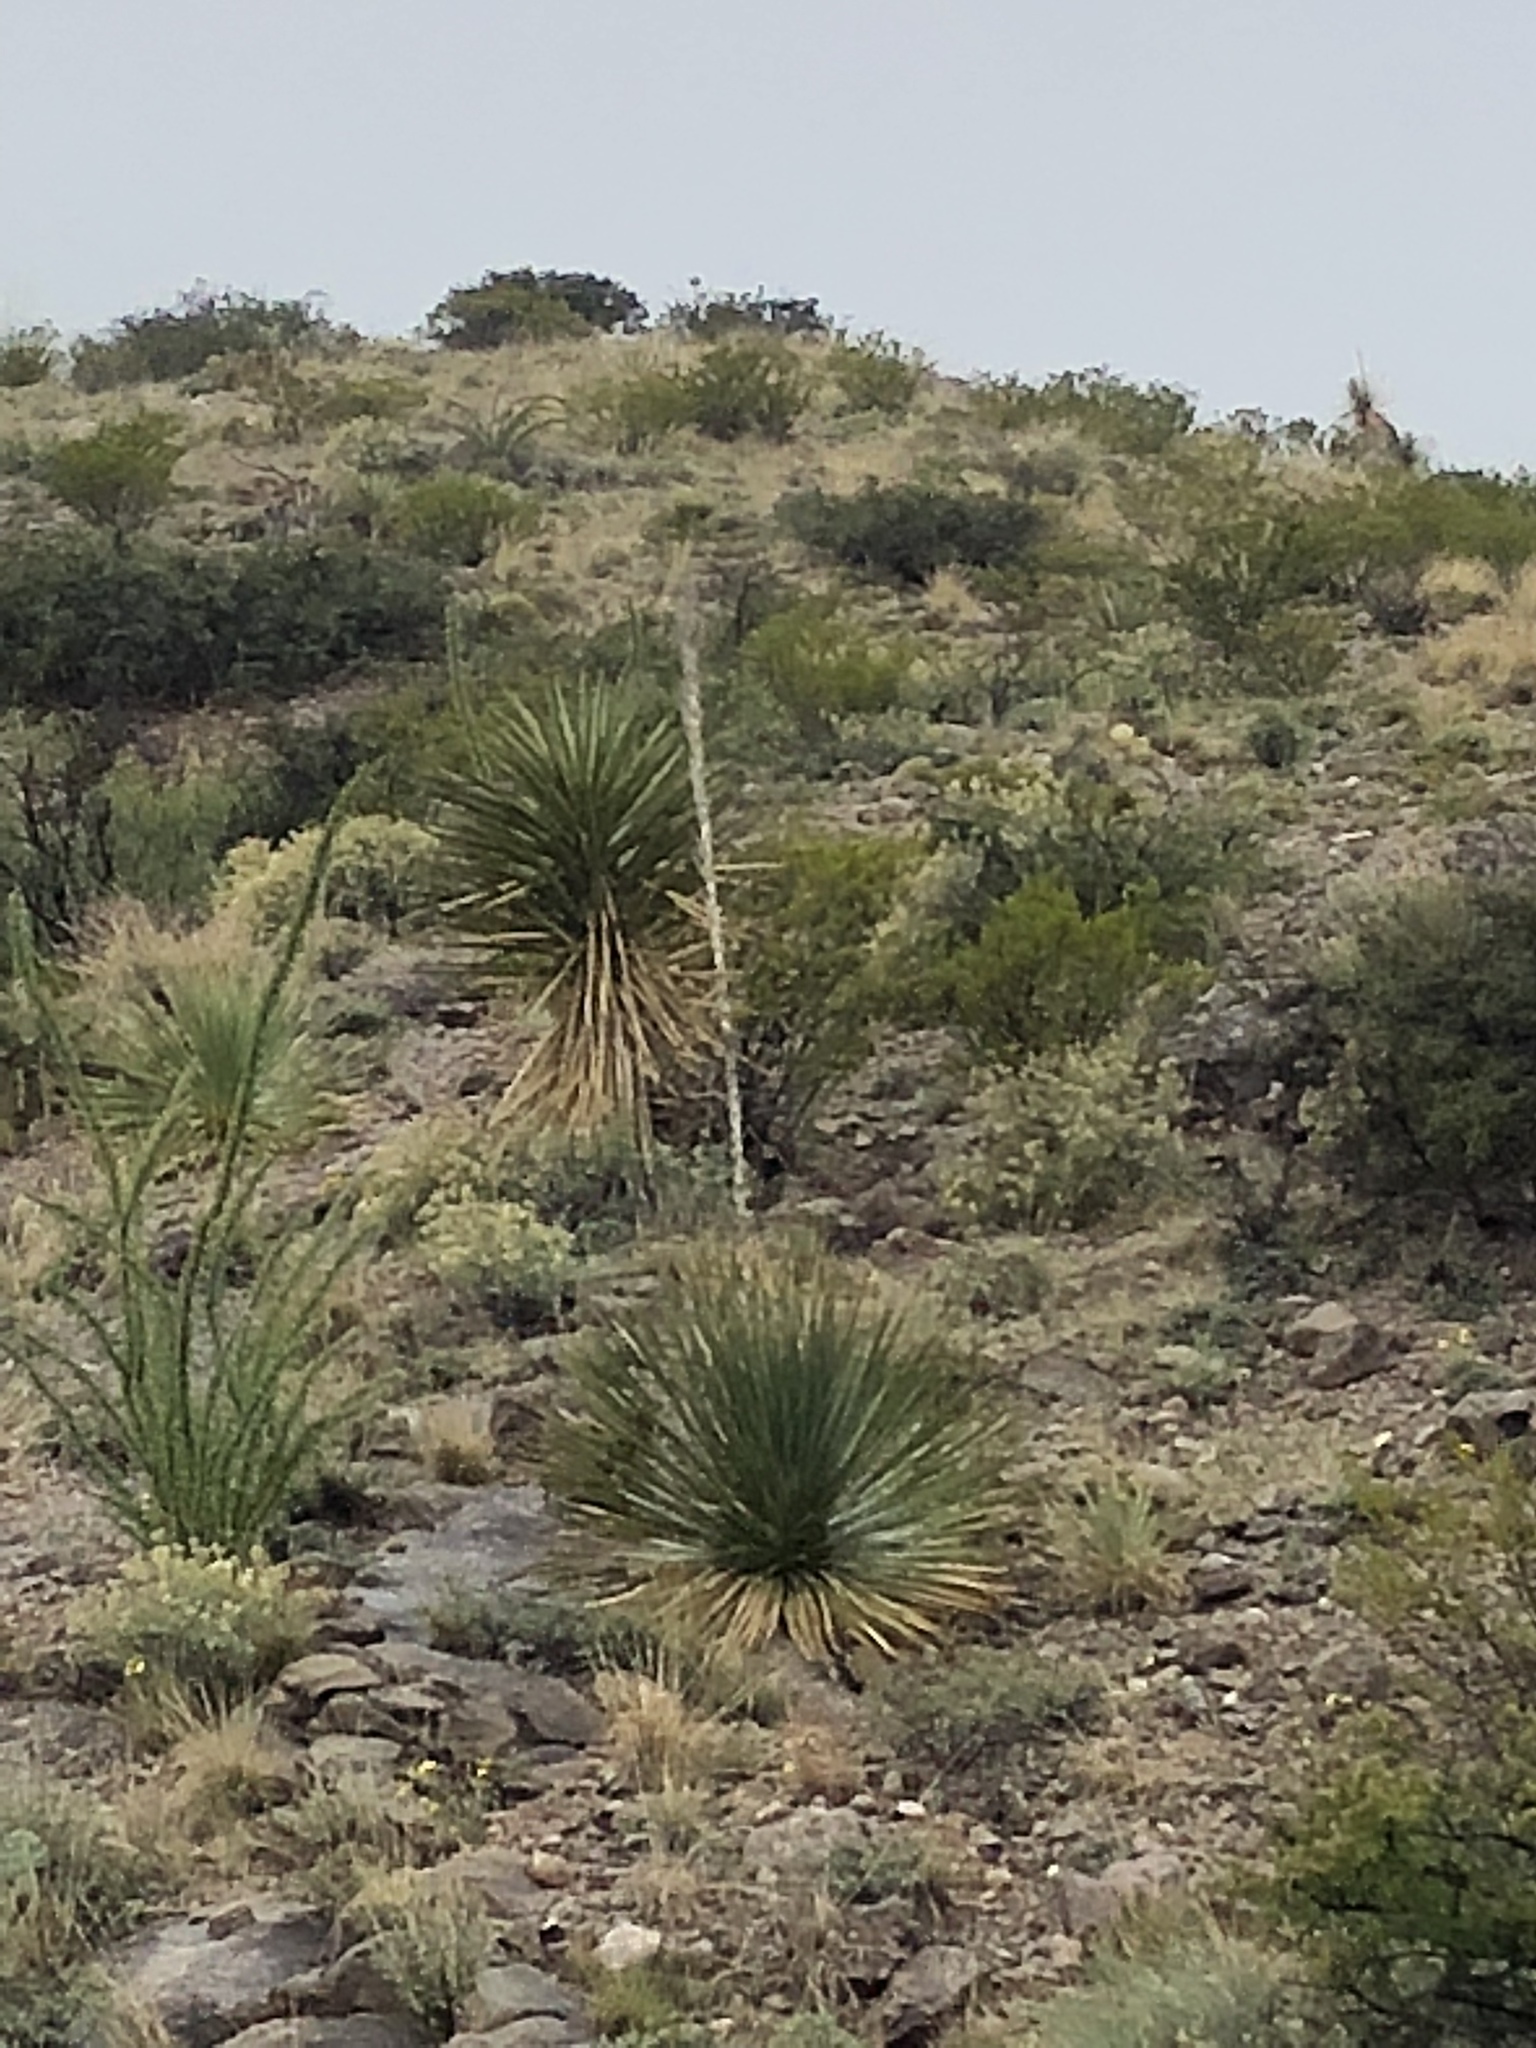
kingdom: Plantae
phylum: Tracheophyta
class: Liliopsida
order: Asparagales
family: Asparagaceae
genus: Dasylirion
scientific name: Dasylirion wheeleri
